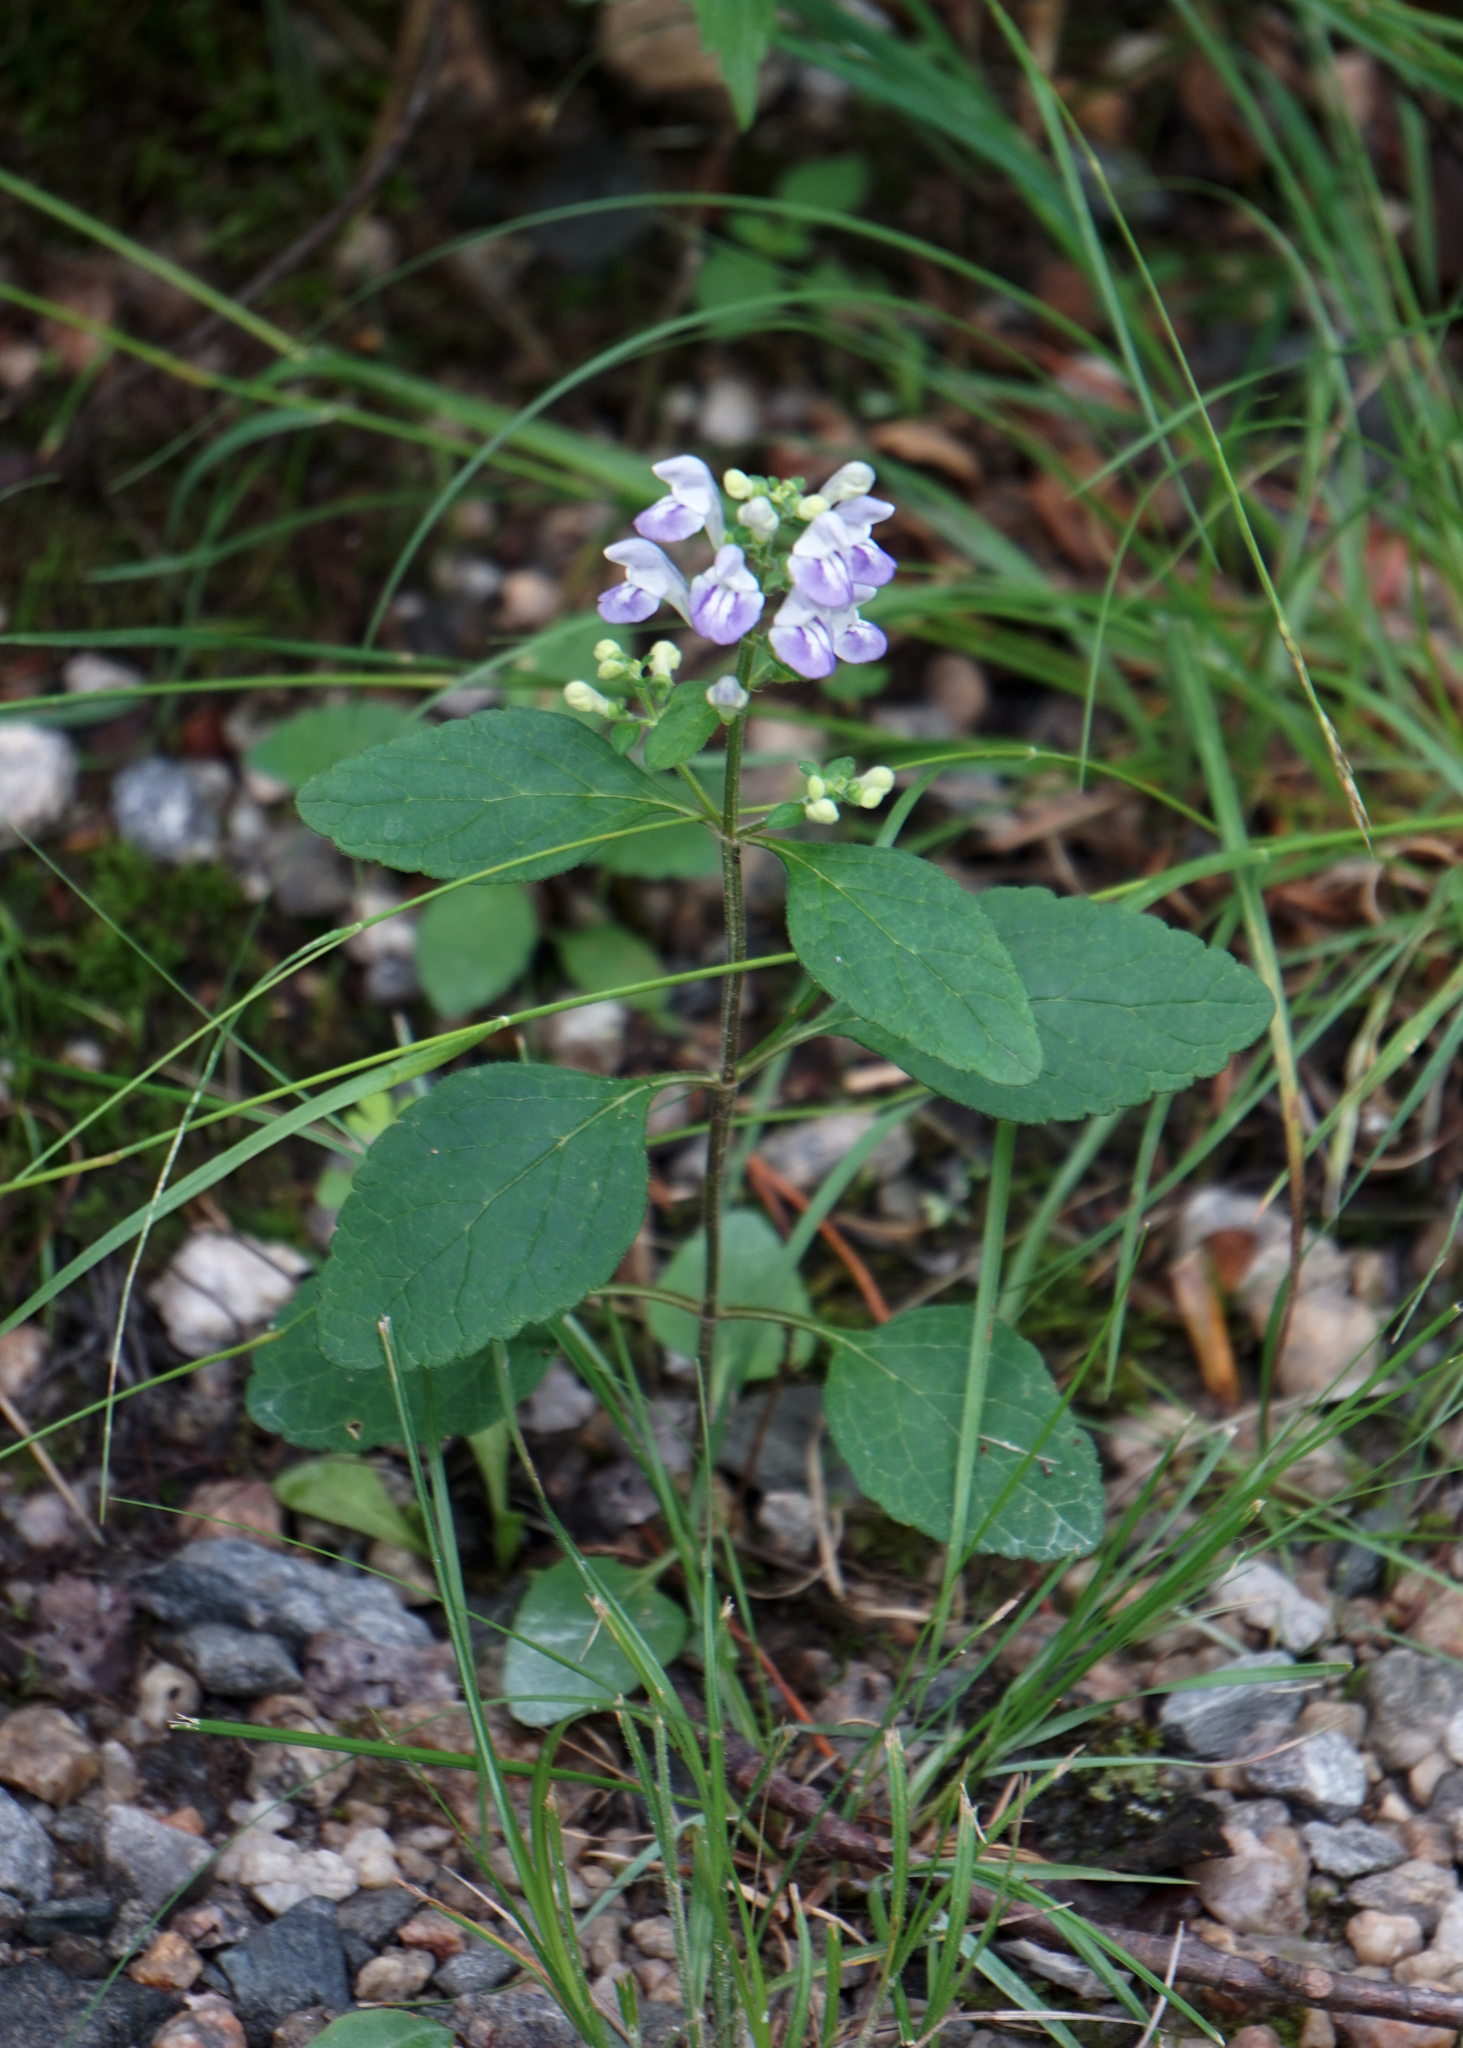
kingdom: Plantae
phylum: Tracheophyta
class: Magnoliopsida
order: Lamiales
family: Lamiaceae
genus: Scutellaria
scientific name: Scutellaria elliptica
